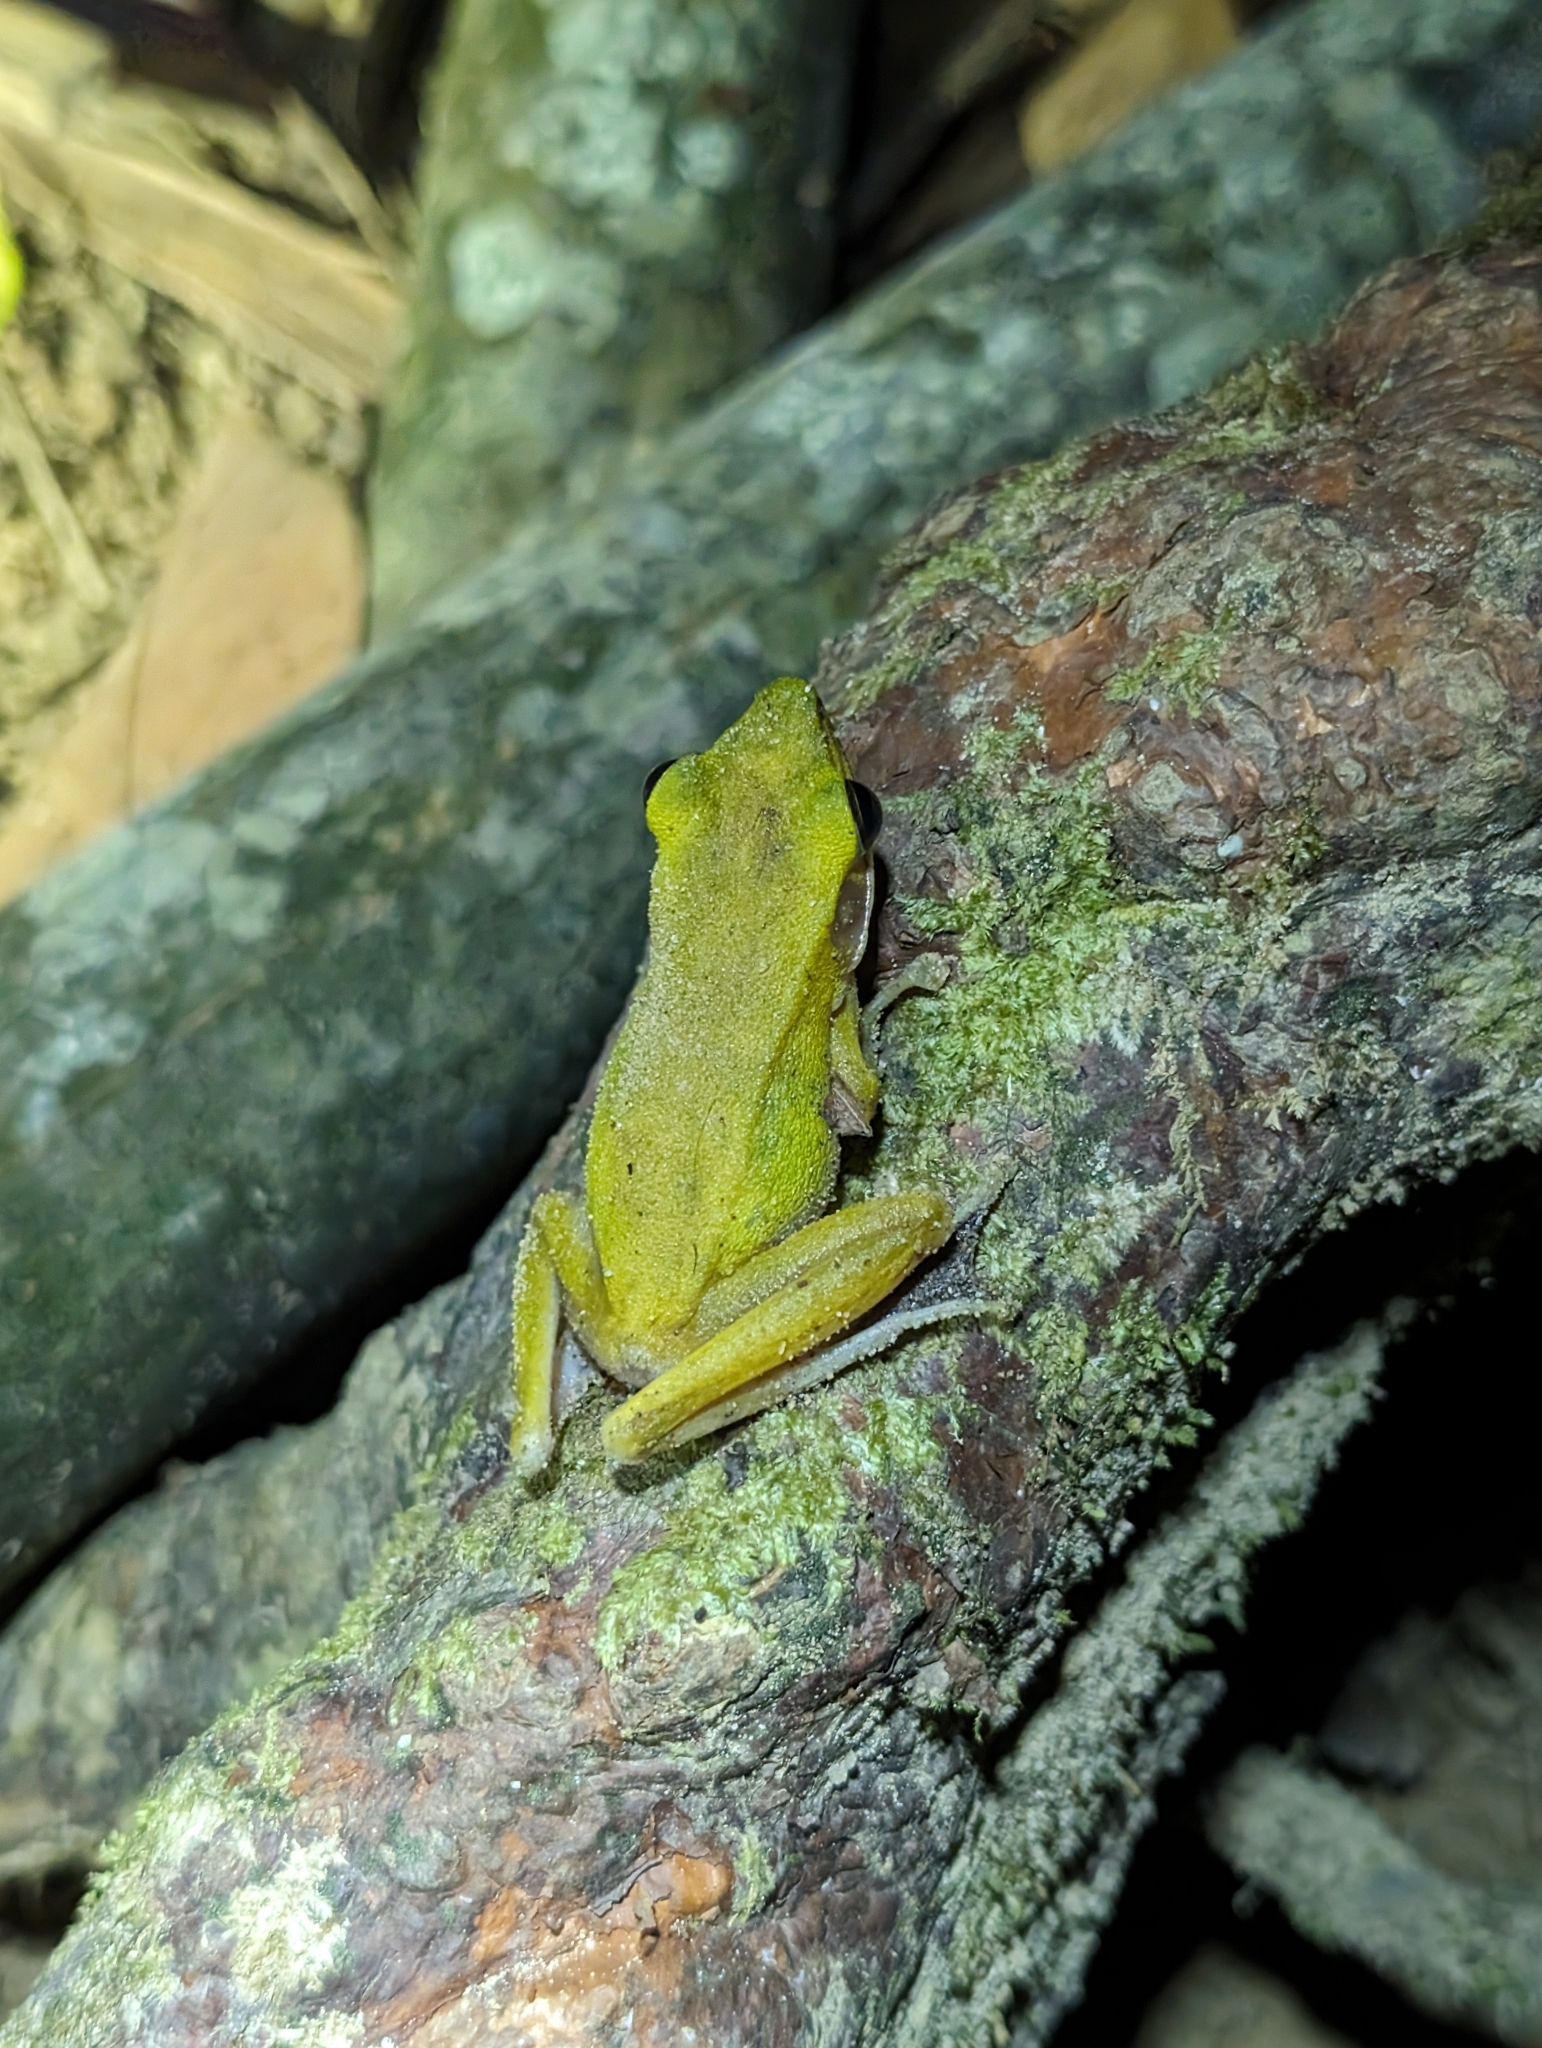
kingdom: Animalia
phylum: Chordata
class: Amphibia
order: Anura
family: Ranidae
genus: Chalcorana
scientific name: Chalcorana eschatia
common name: Tenasserim white-lipped frog
